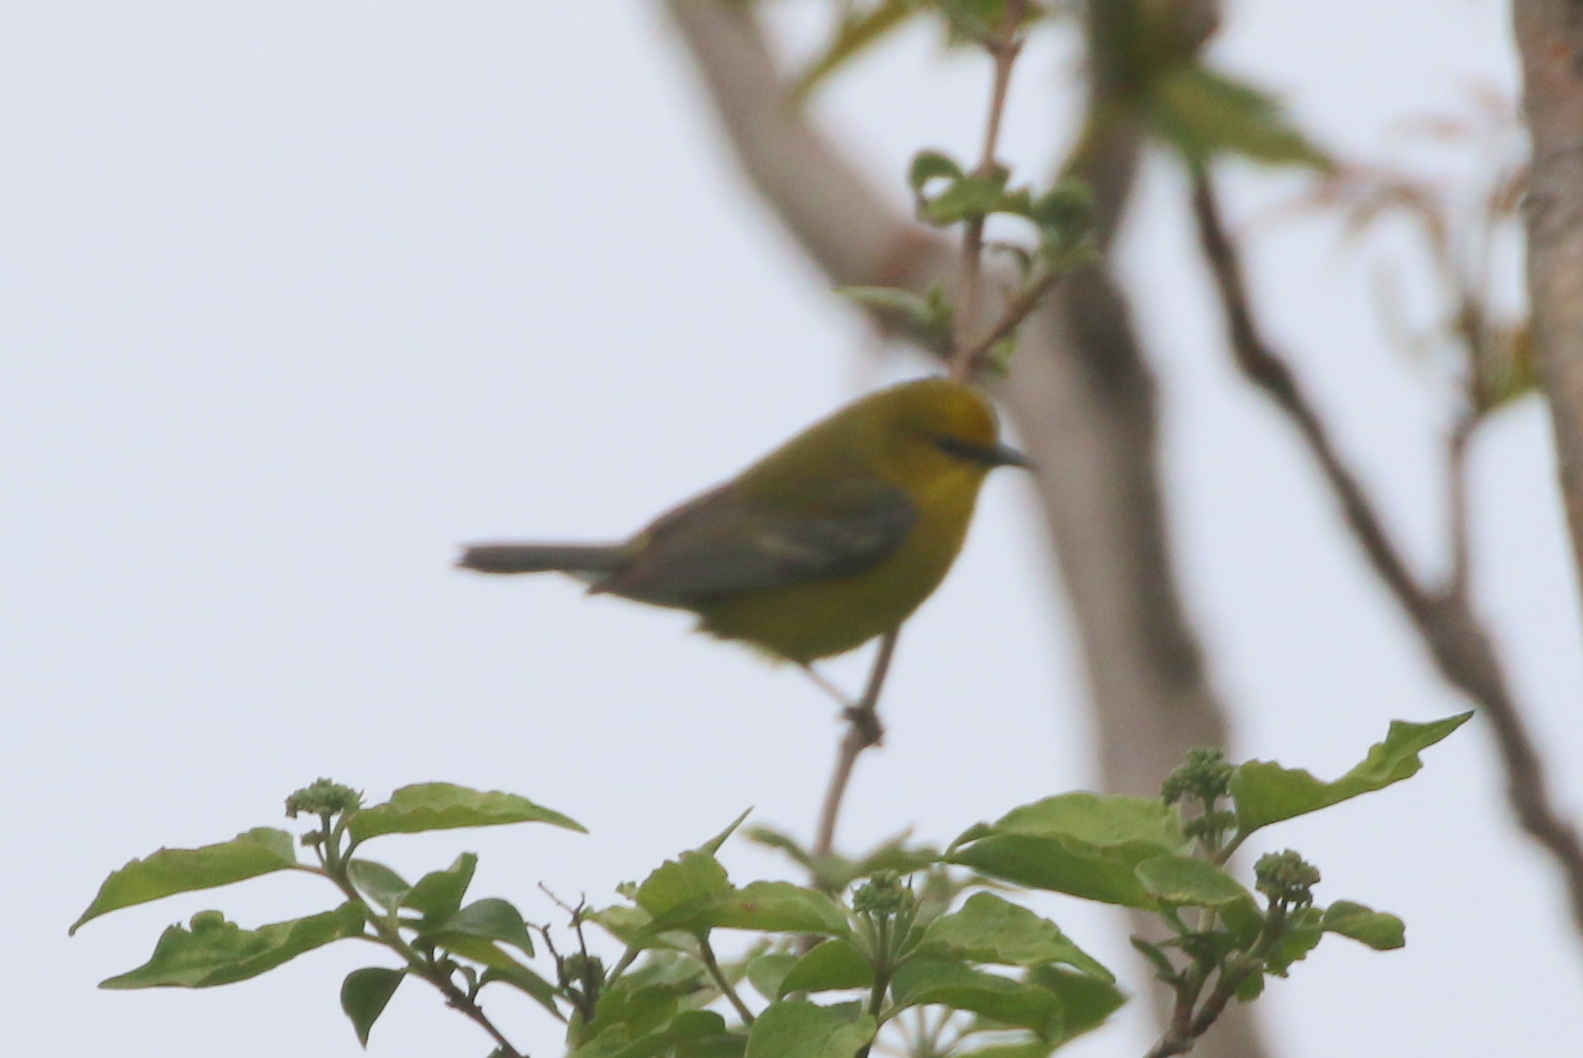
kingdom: Animalia
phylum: Chordata
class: Aves
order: Passeriformes
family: Parulidae
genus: Vermivora
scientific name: Vermivora cyanoptera
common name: Blue-winged warbler
